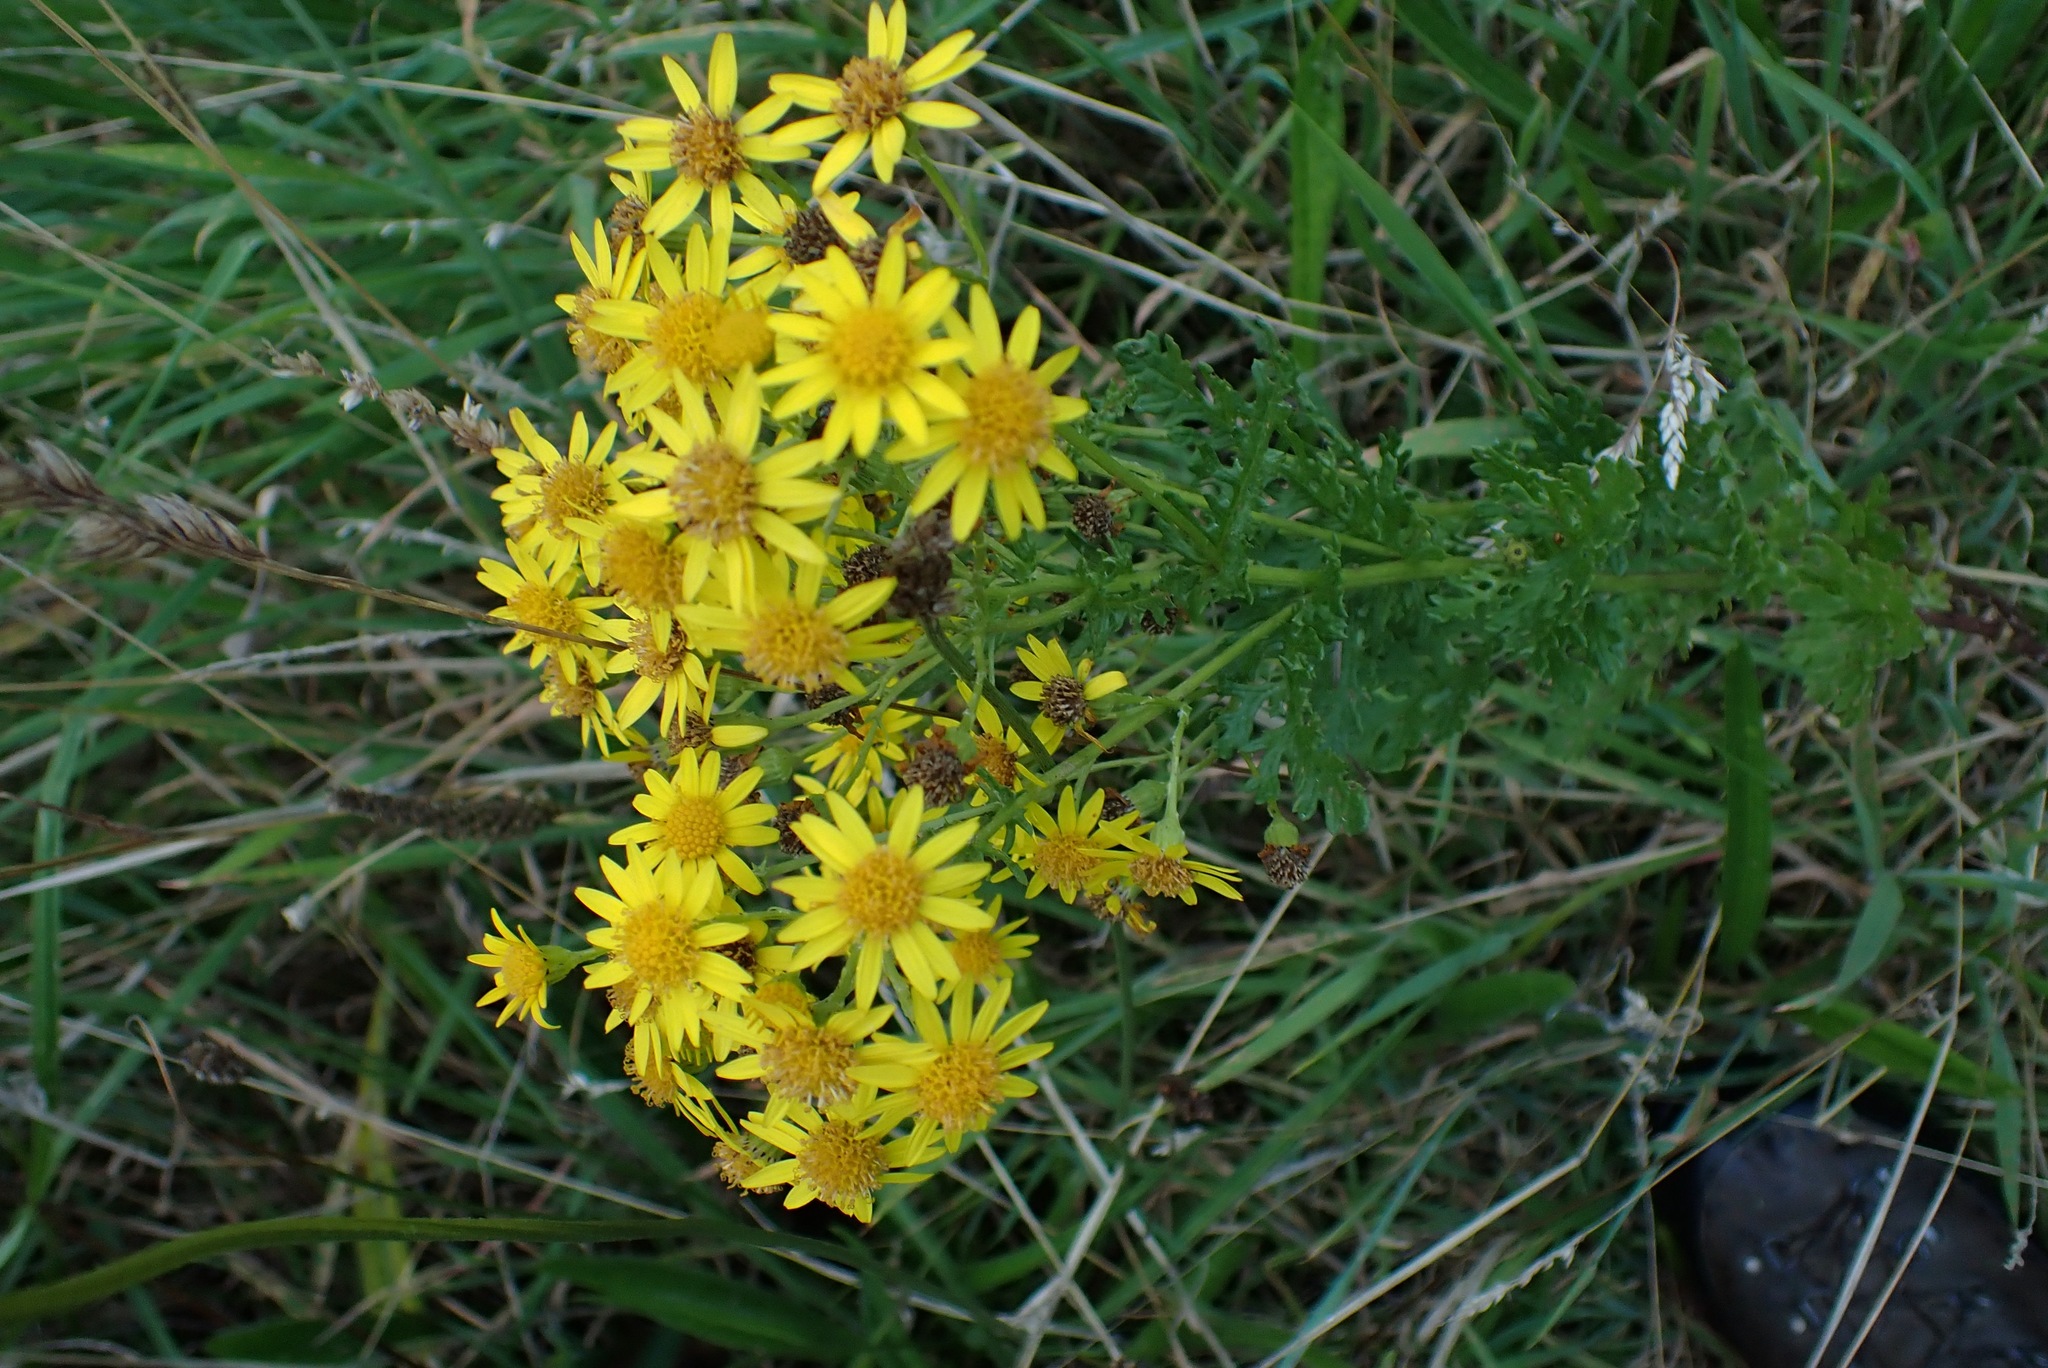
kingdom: Plantae
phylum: Tracheophyta
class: Magnoliopsida
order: Asterales
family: Asteraceae
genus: Jacobaea
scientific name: Jacobaea vulgaris
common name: Stinking willie
